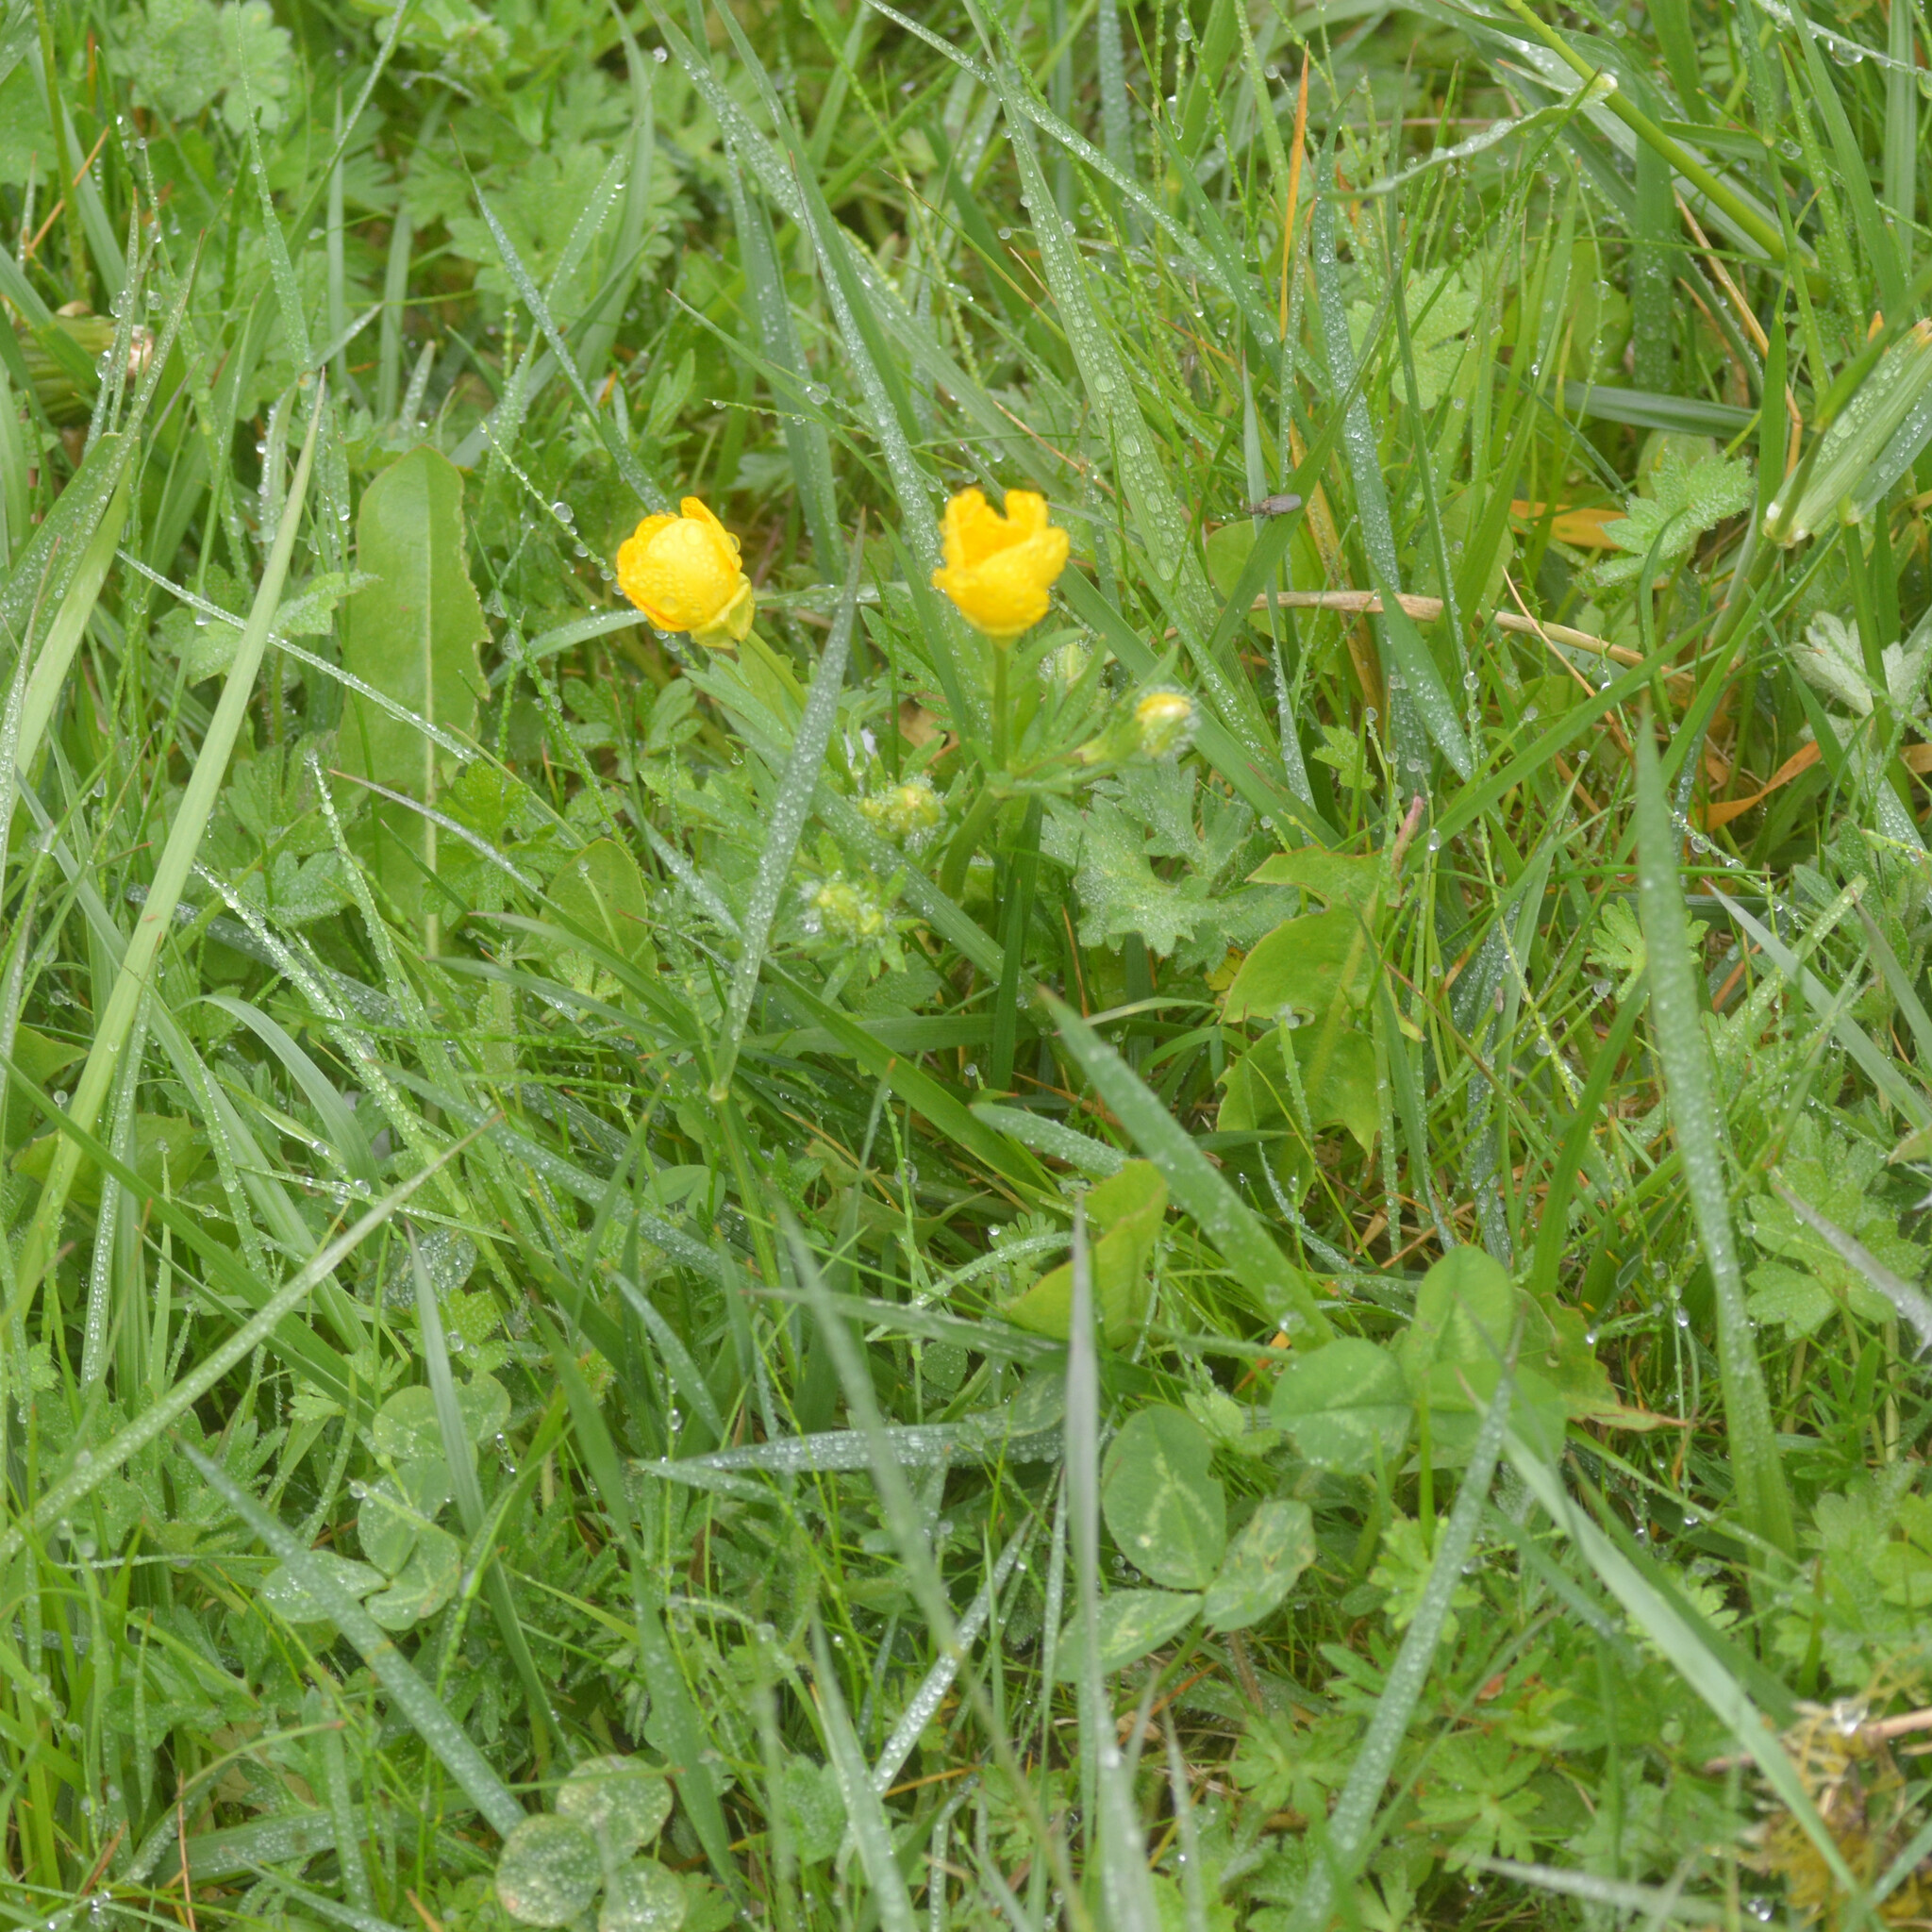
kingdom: Plantae
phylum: Tracheophyta
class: Magnoliopsida
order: Ranunculales
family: Ranunculaceae
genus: Ranunculus
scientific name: Ranunculus bulbosus
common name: Bulbous buttercup
